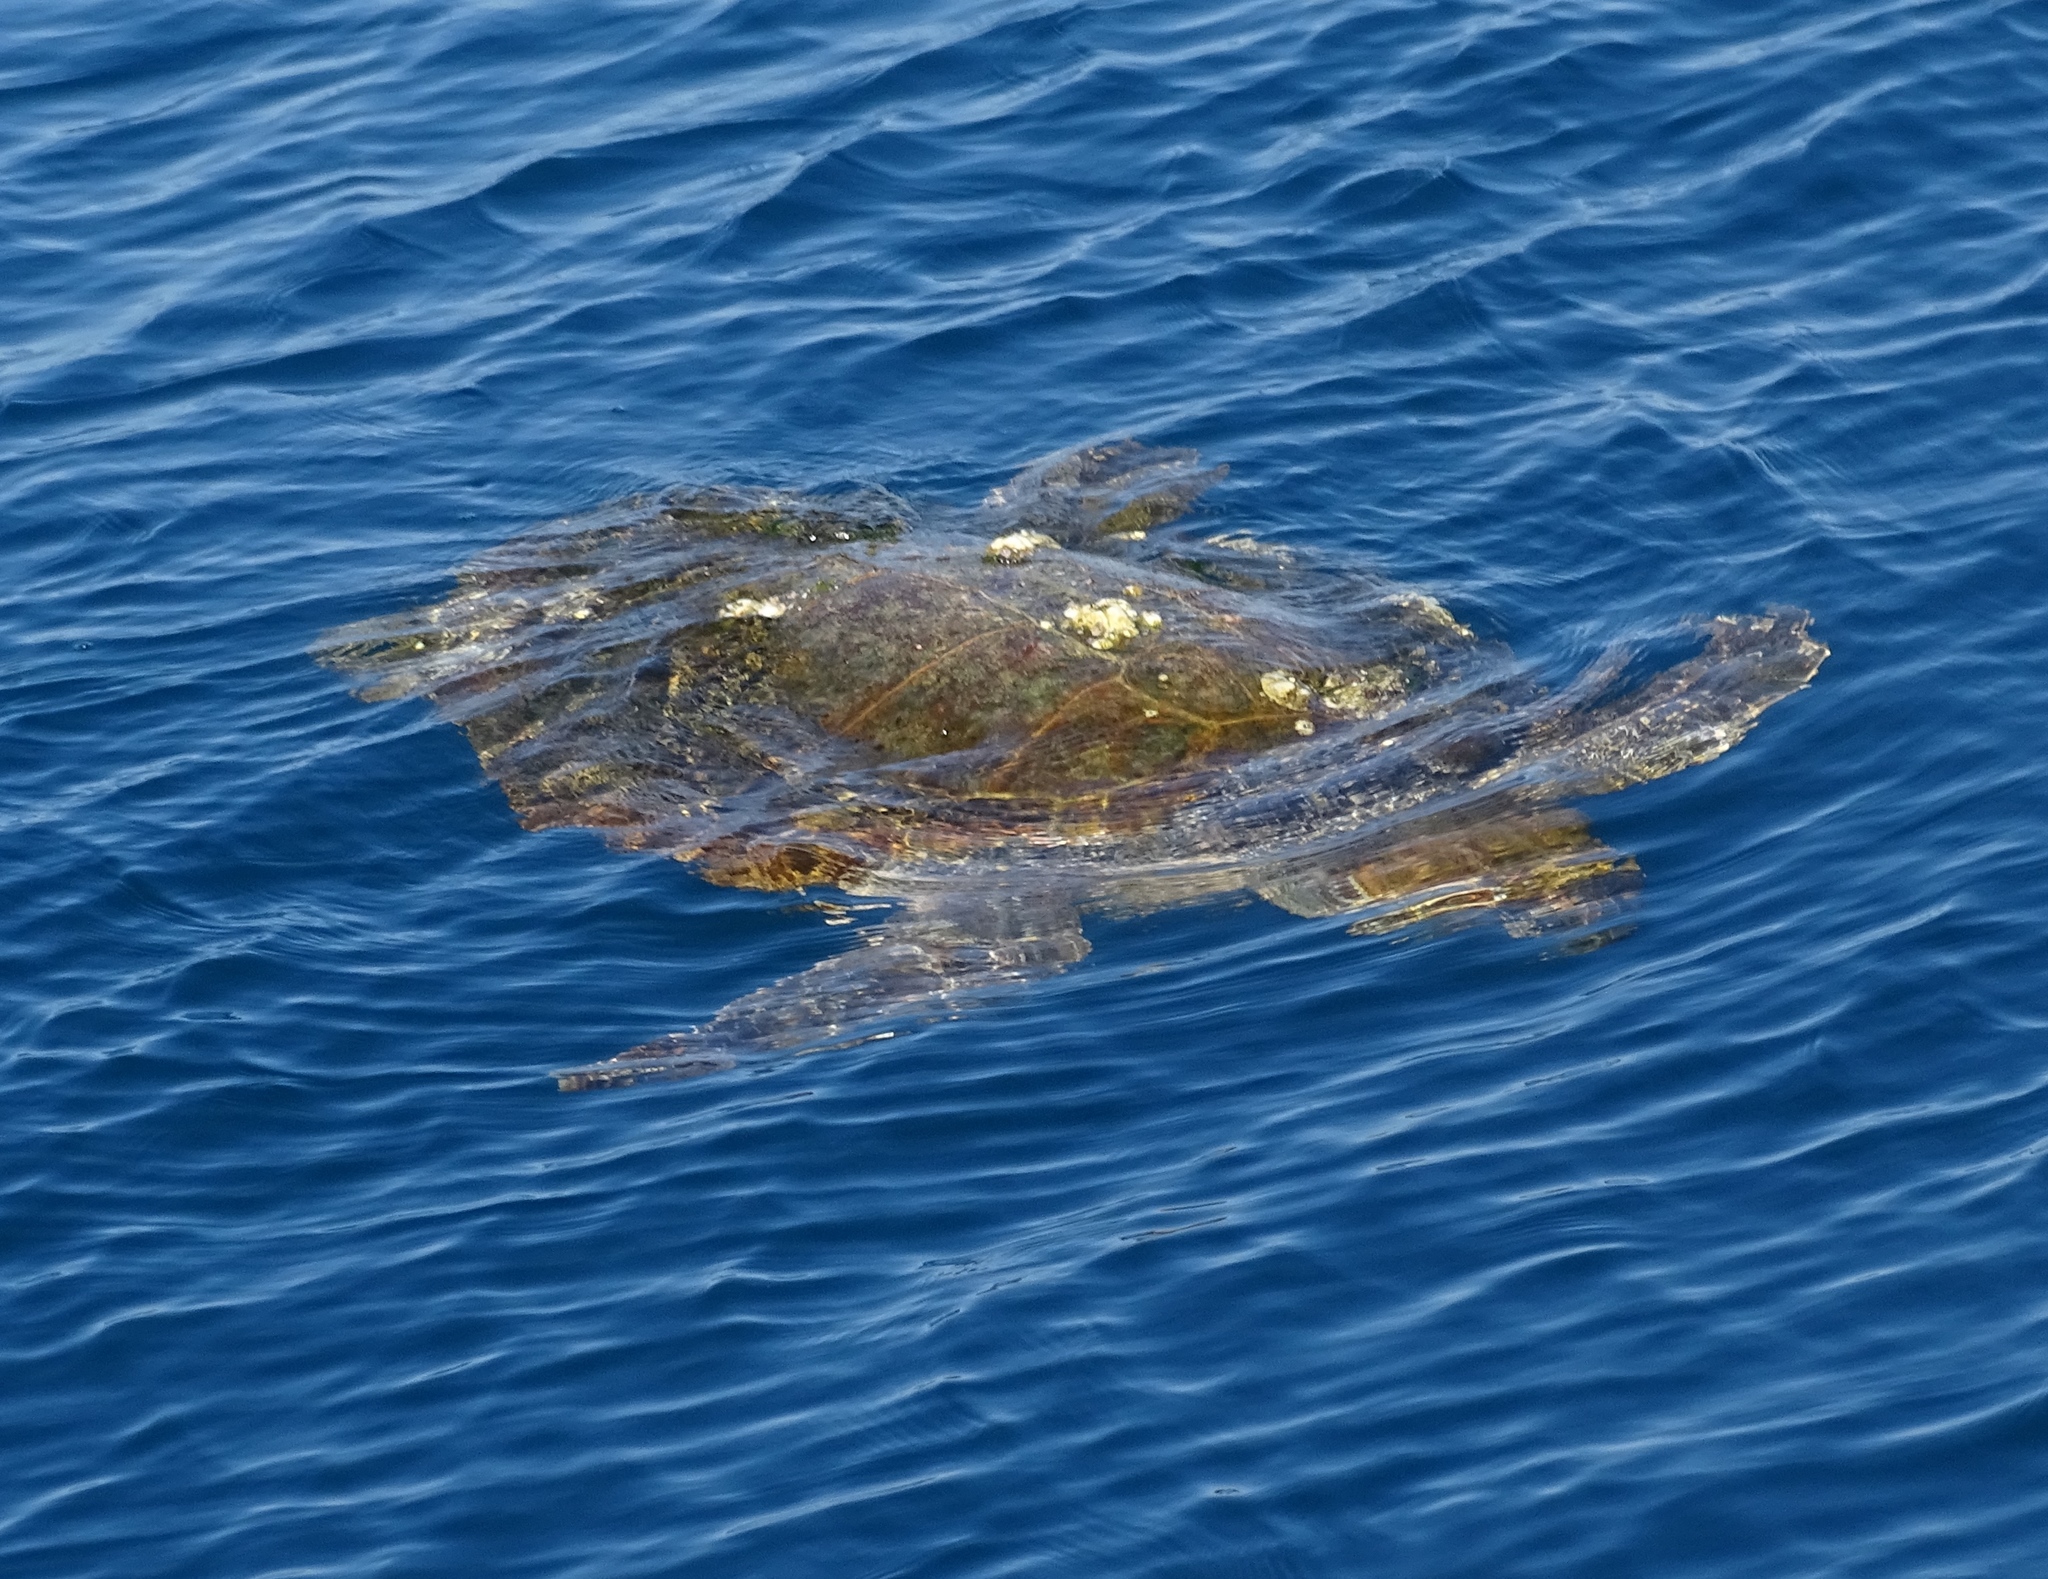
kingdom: Animalia
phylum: Chordata
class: Testudines
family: Cheloniidae
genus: Caretta
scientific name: Caretta caretta
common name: Loggerhead sea turtle
